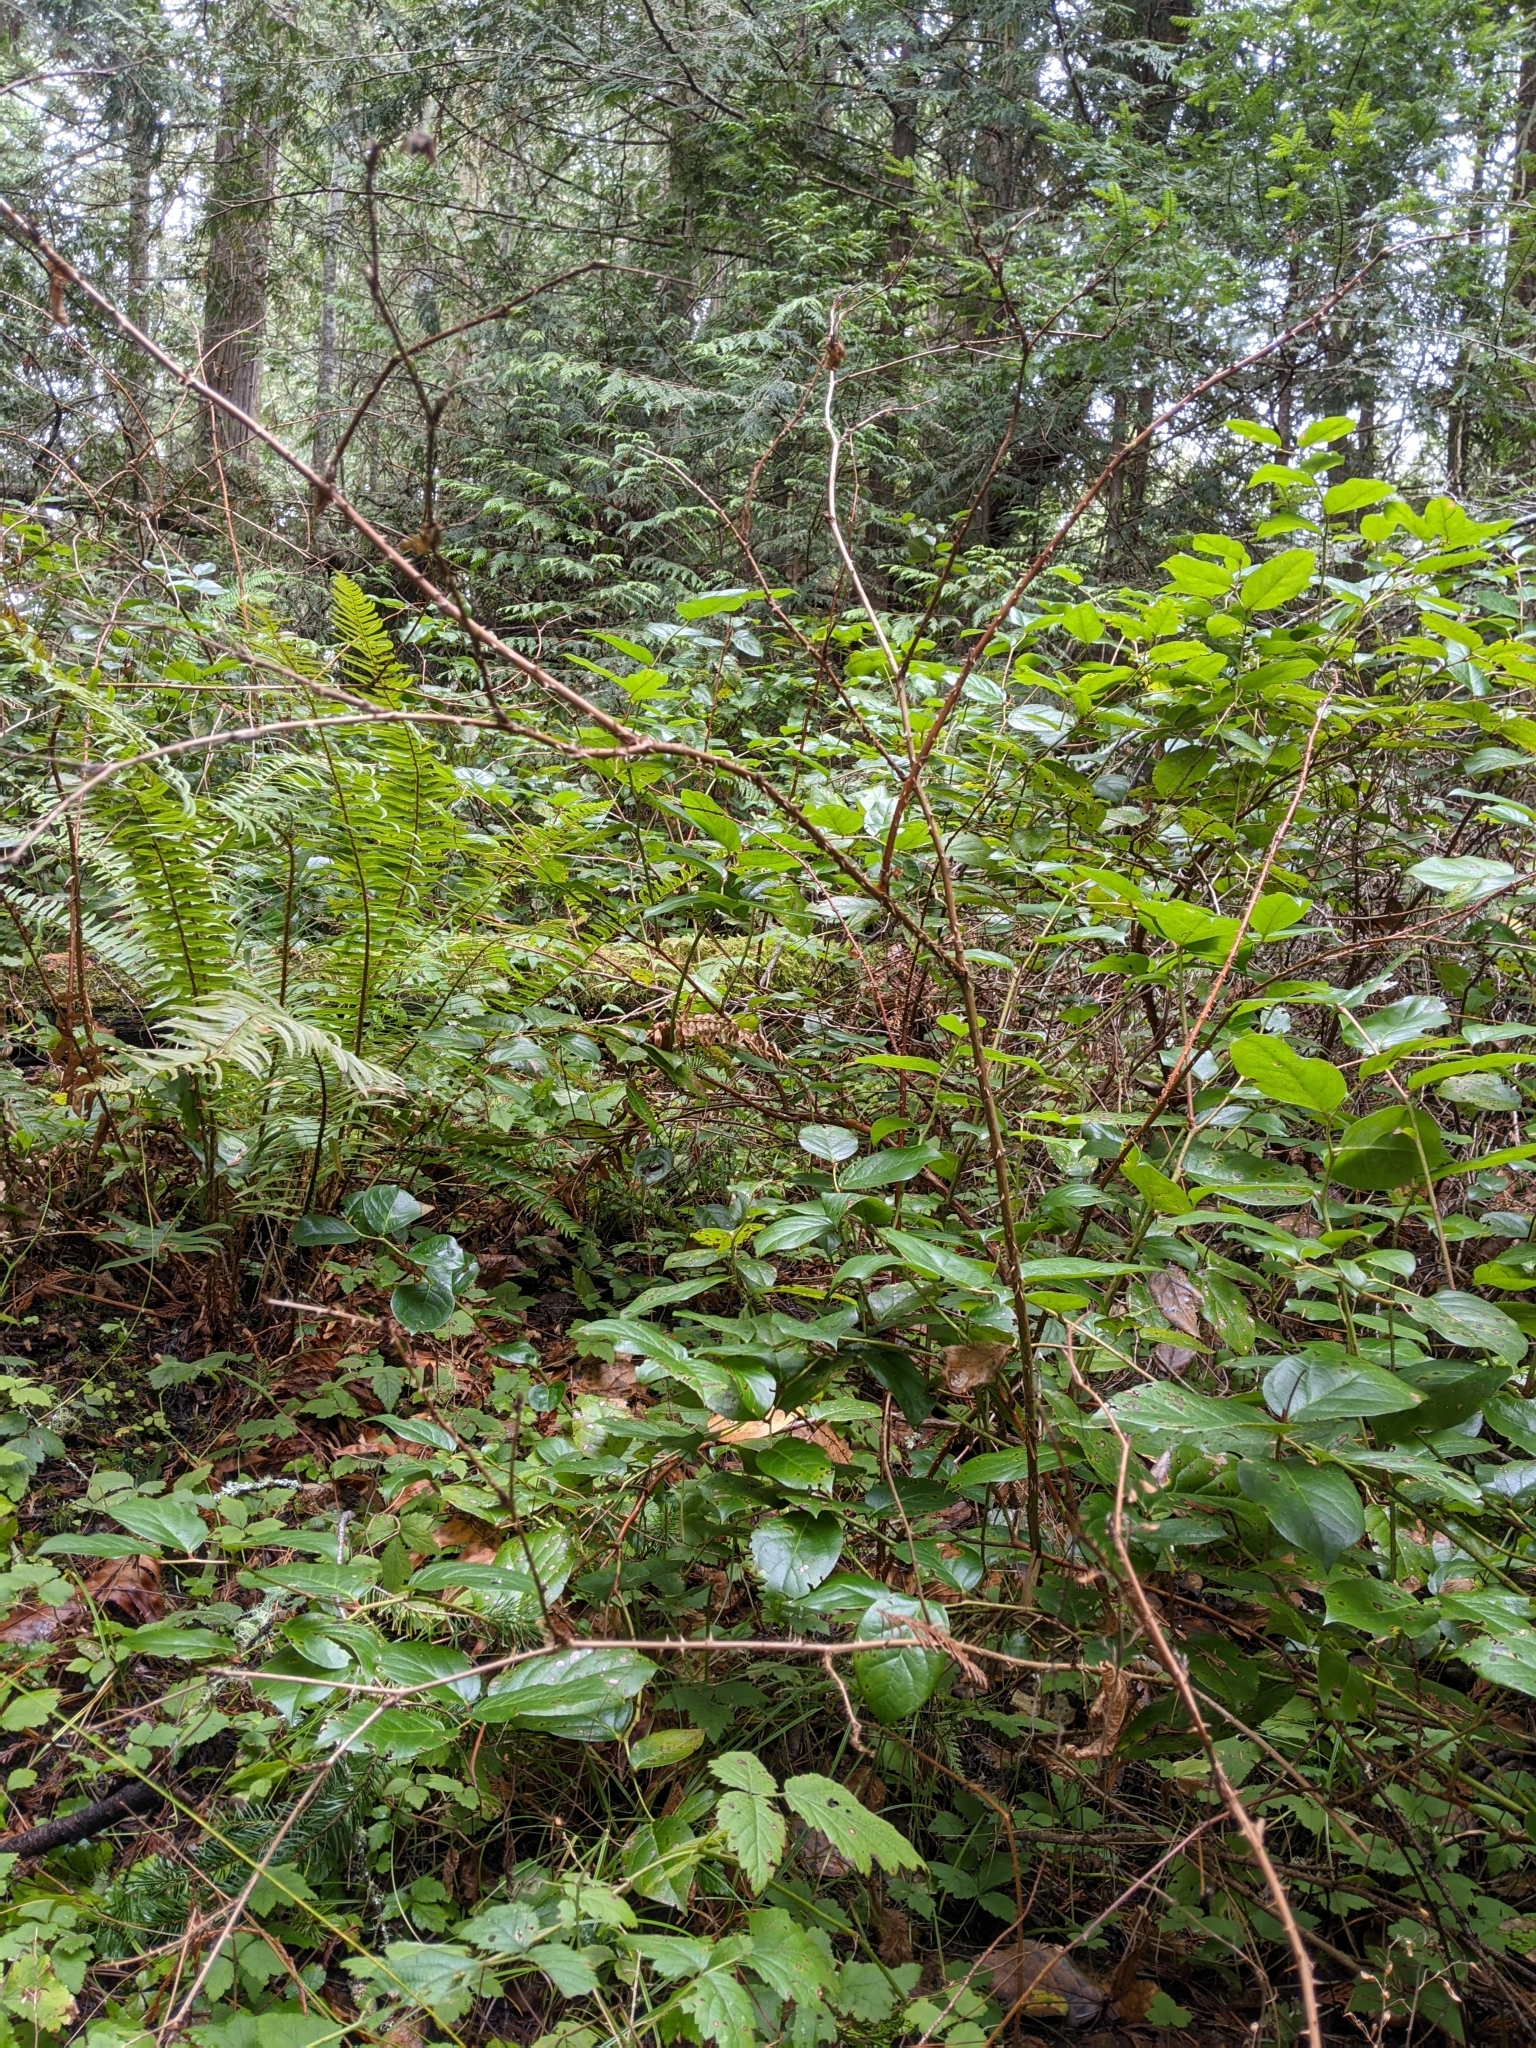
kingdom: Plantae
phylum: Tracheophyta
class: Magnoliopsida
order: Rosales
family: Rosaceae
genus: Rubus
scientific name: Rubus spectabilis
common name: Salmonberry
